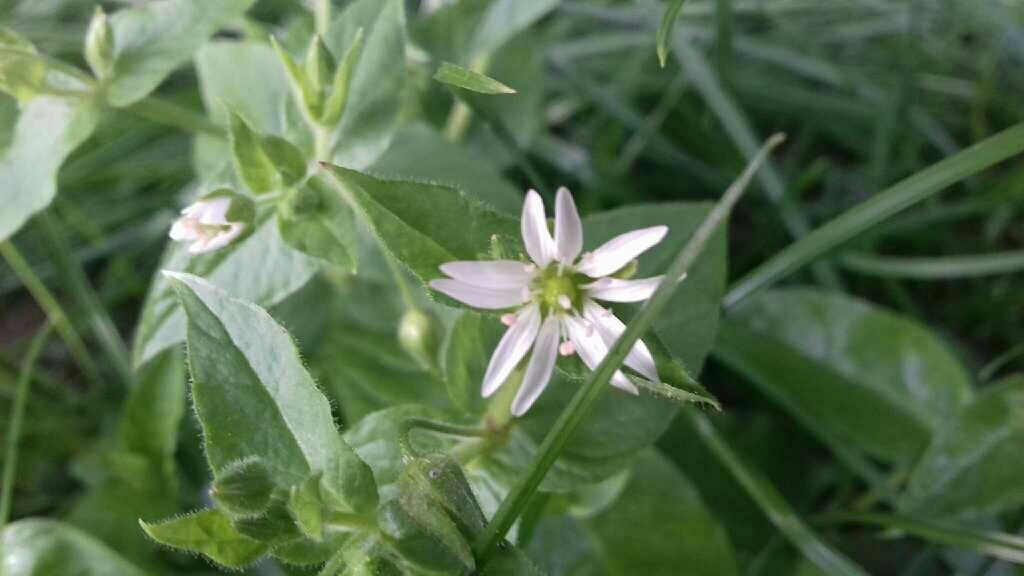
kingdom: Plantae
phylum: Tracheophyta
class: Magnoliopsida
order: Caryophyllales
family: Caryophyllaceae
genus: Stellaria
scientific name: Stellaria aquatica
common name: Water chickweed
